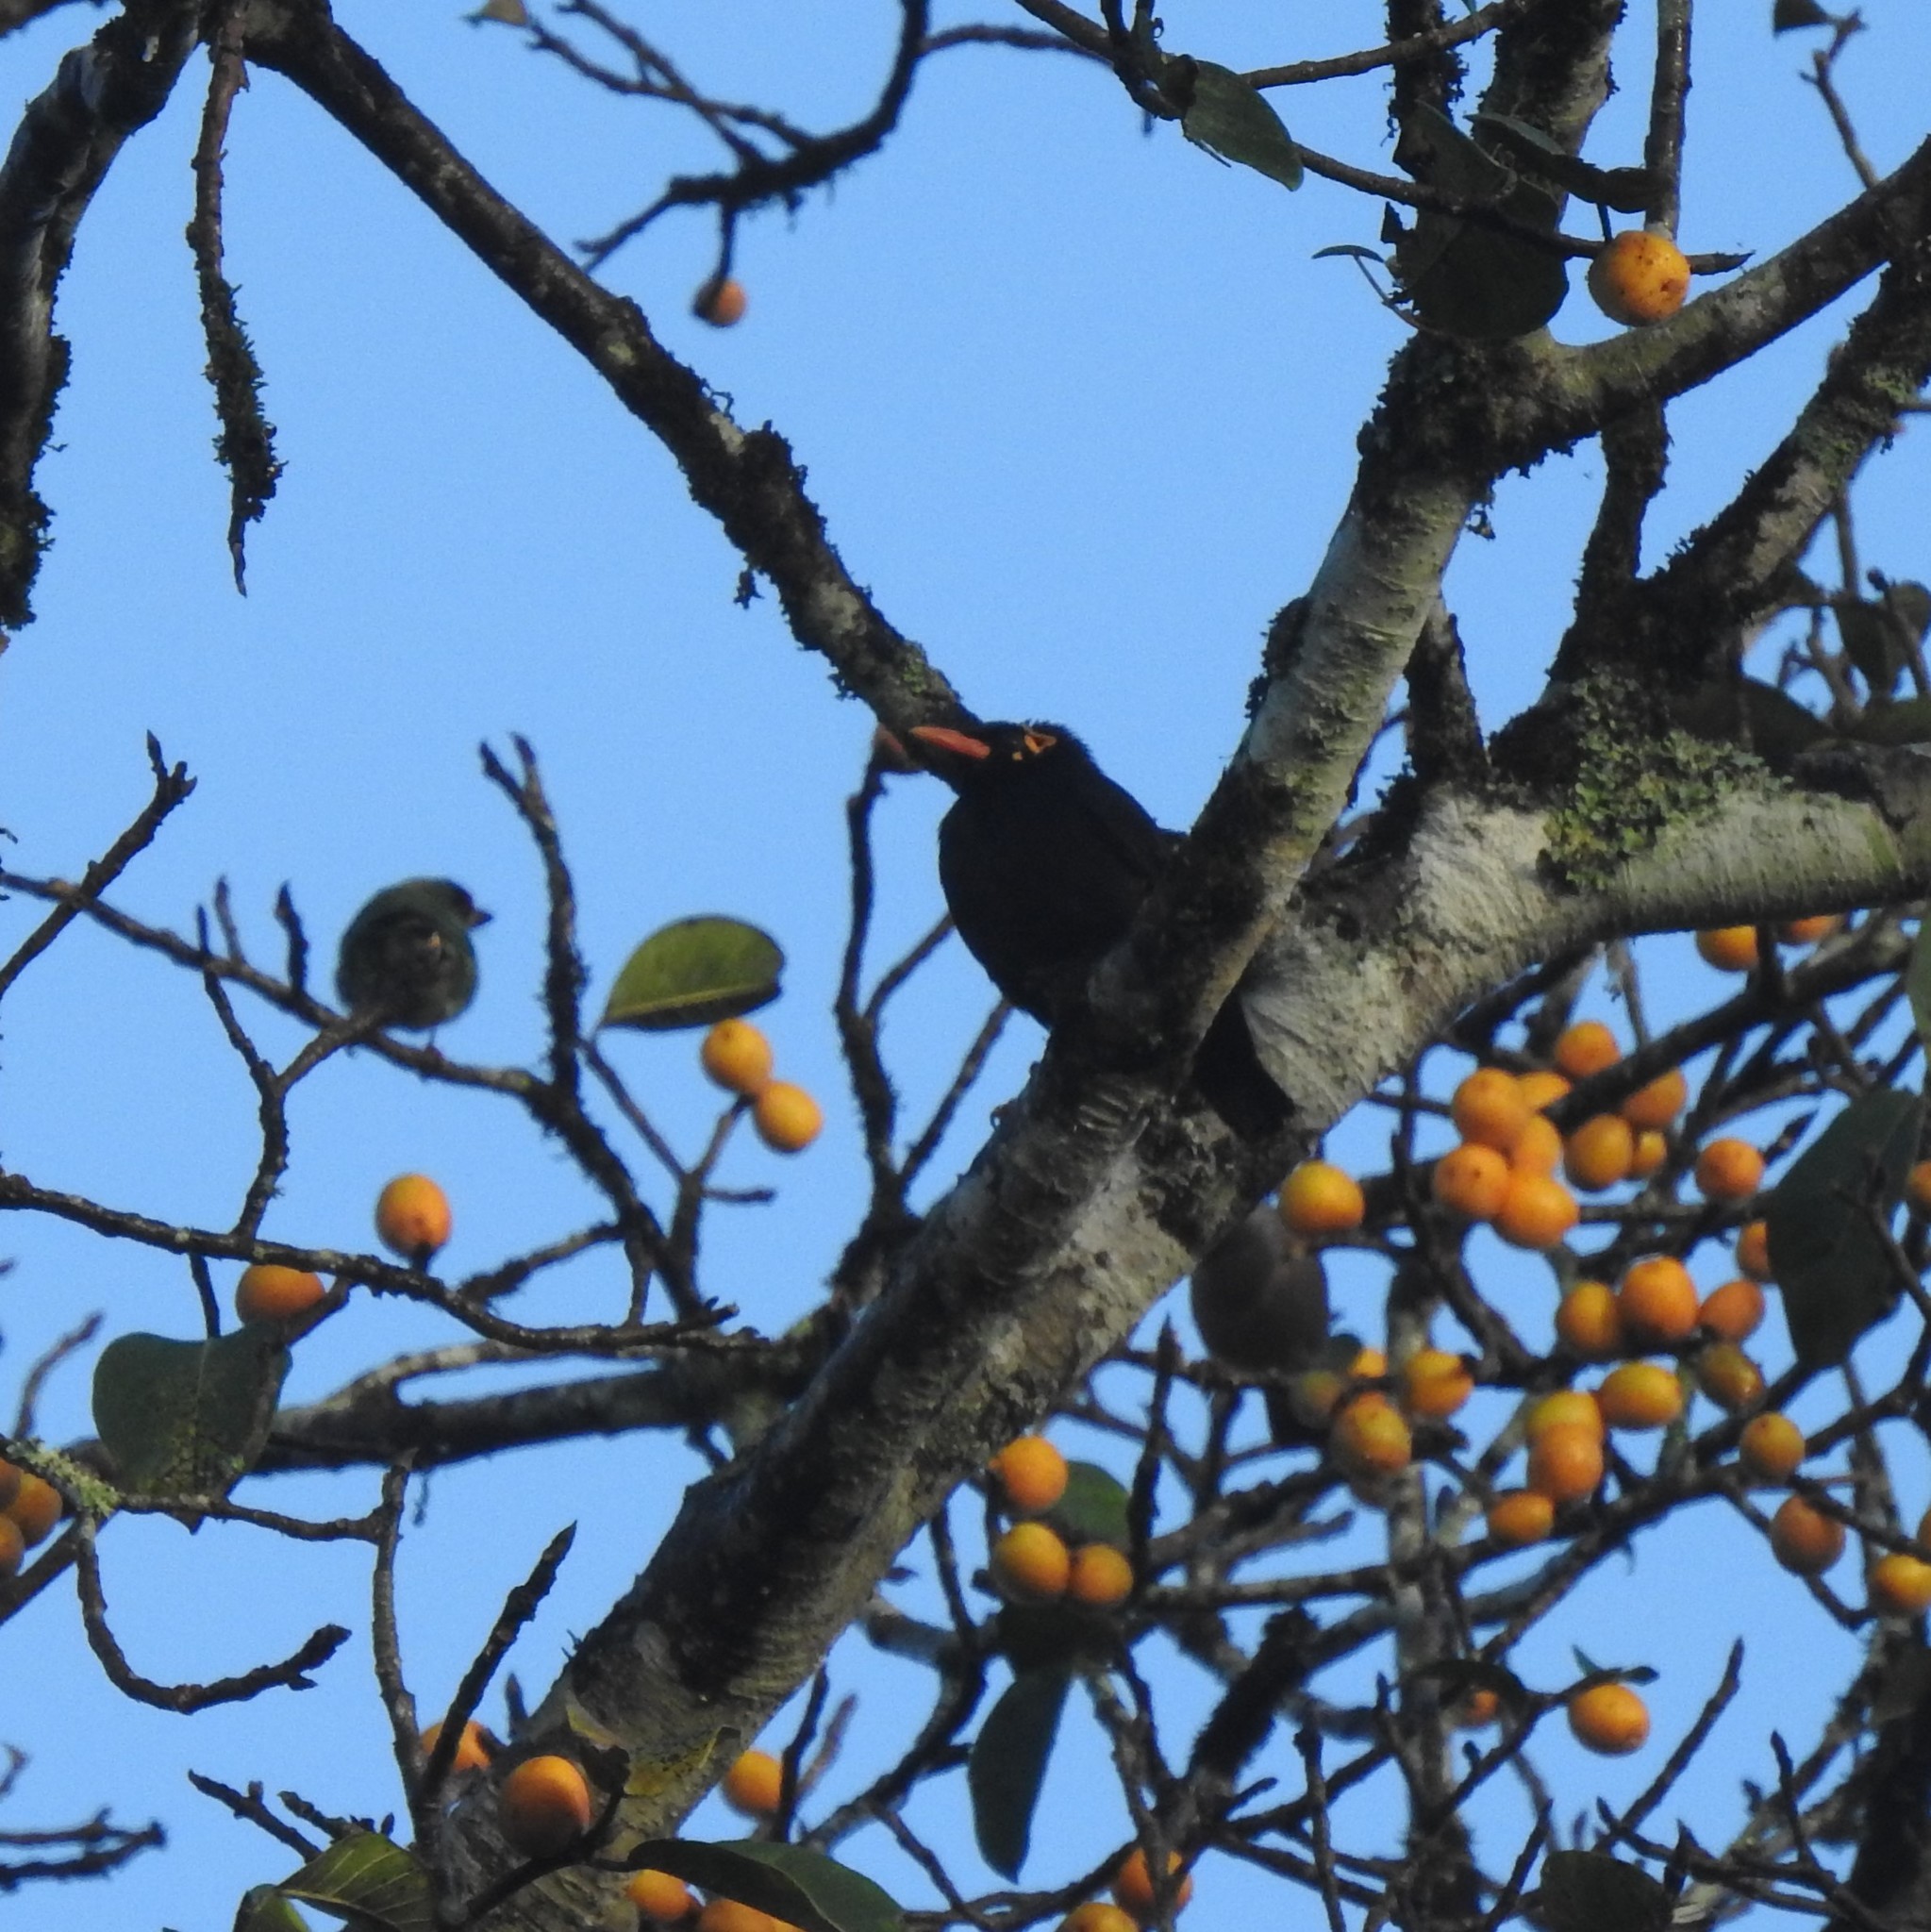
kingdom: Animalia
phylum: Chordata
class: Aves
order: Passeriformes
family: Sturnidae
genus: Gracula
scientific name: Gracula indica
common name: Southern hill myna
